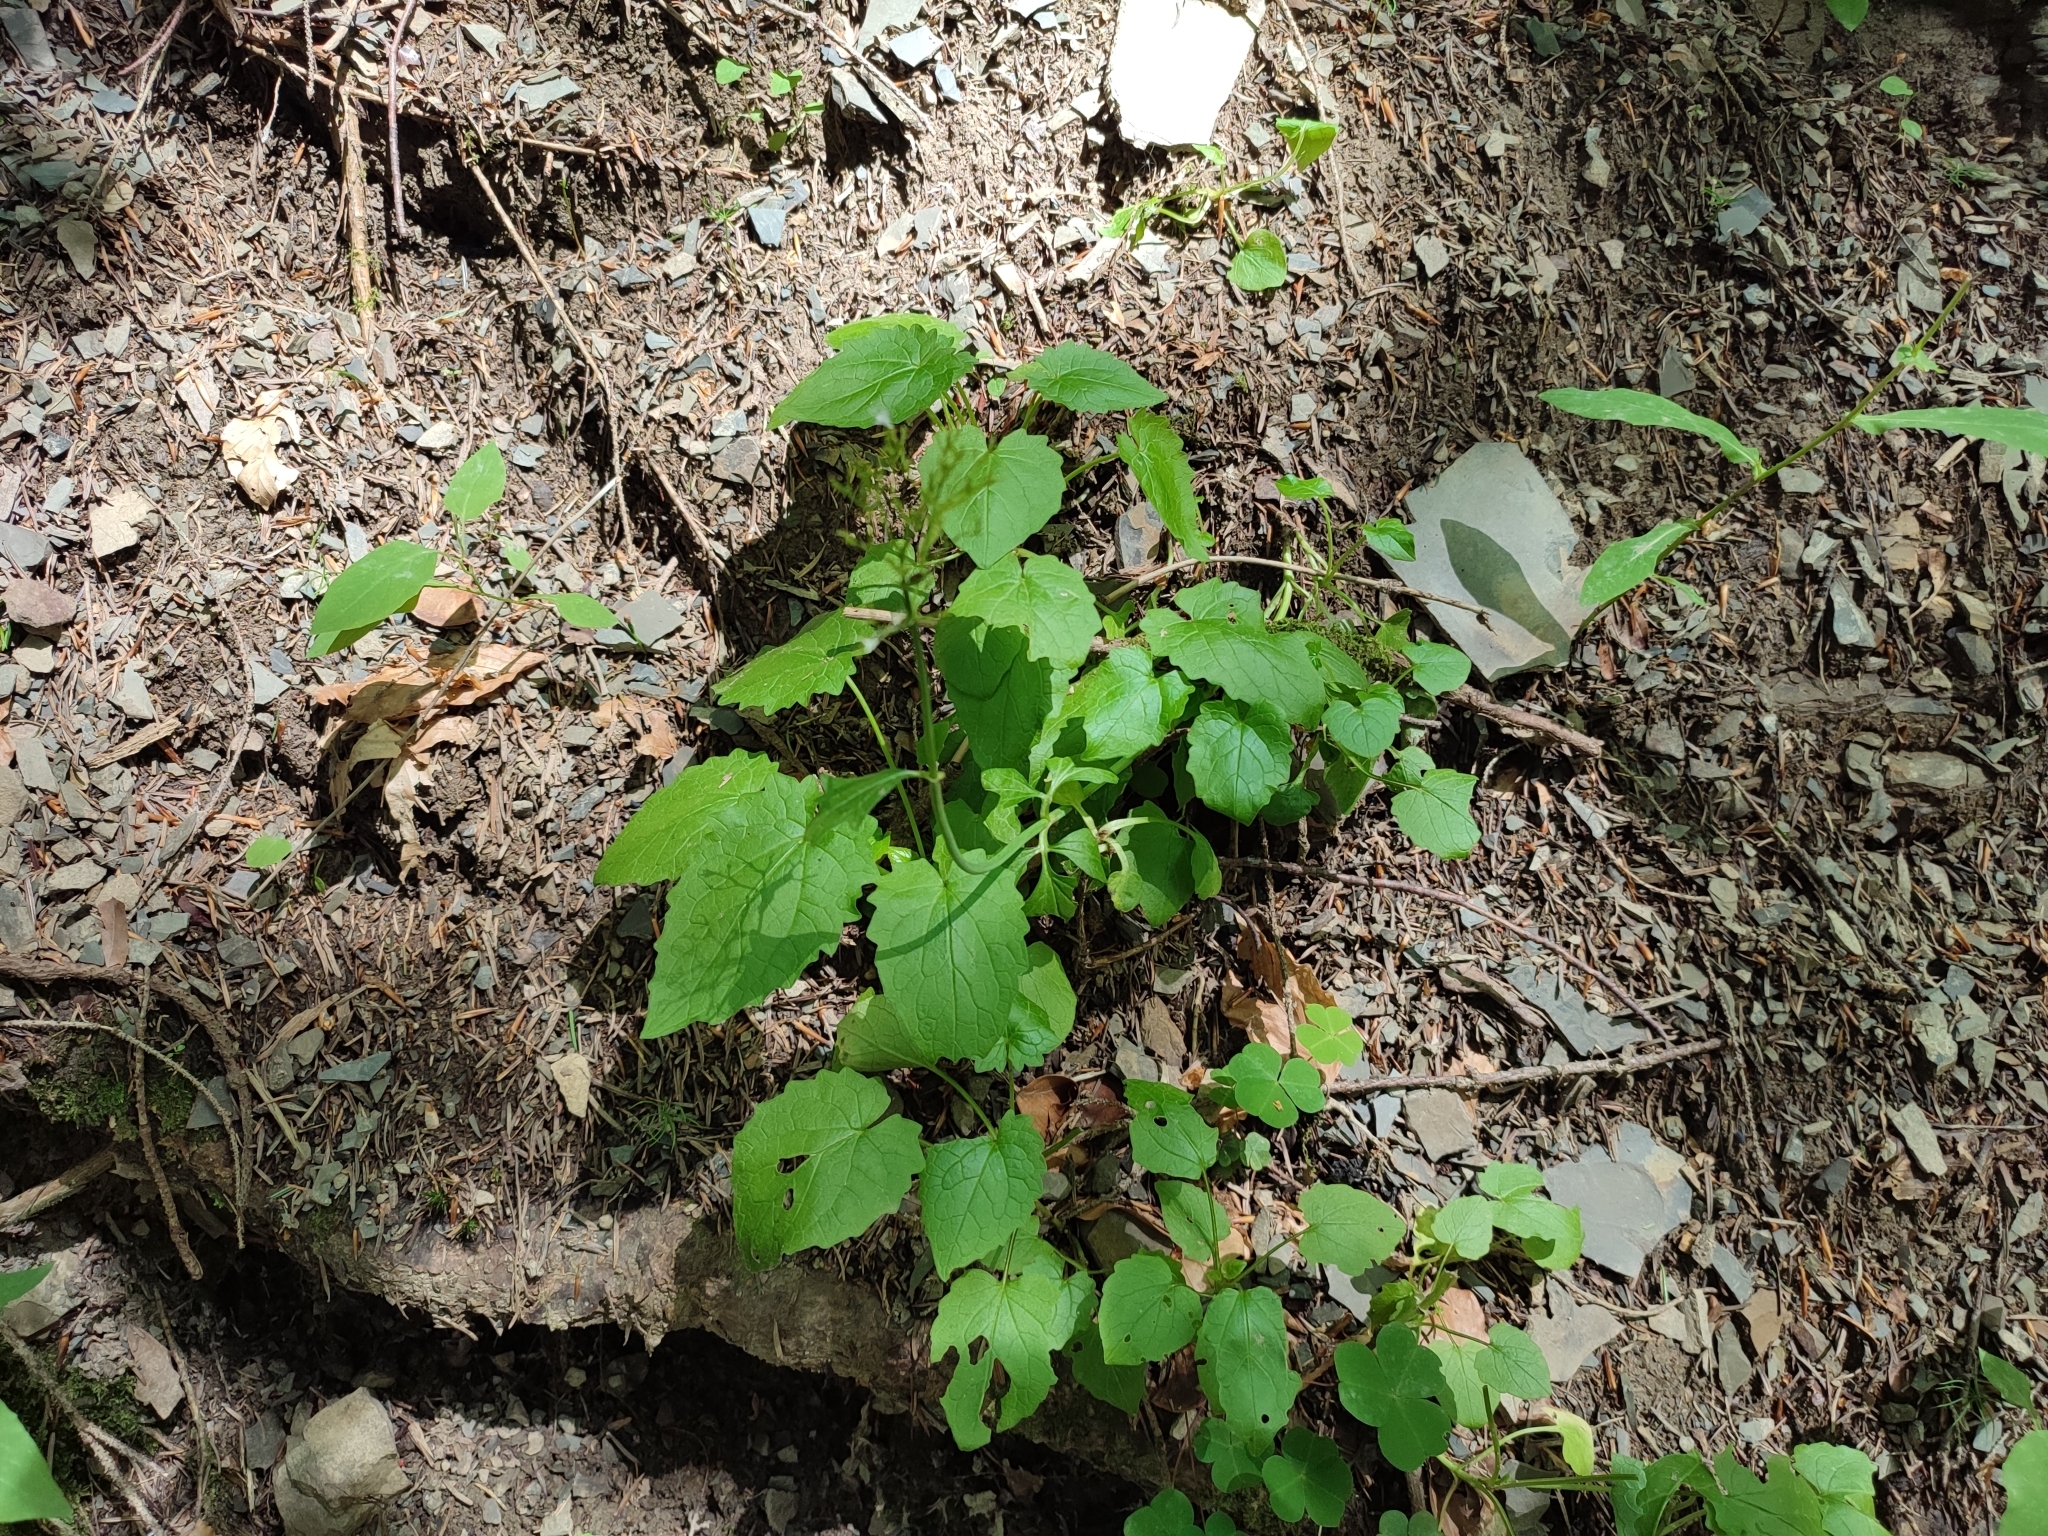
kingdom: Plantae
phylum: Tracheophyta
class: Magnoliopsida
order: Asterales
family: Asteraceae
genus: Lapsana
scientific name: Lapsana communis
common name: Nipplewort
